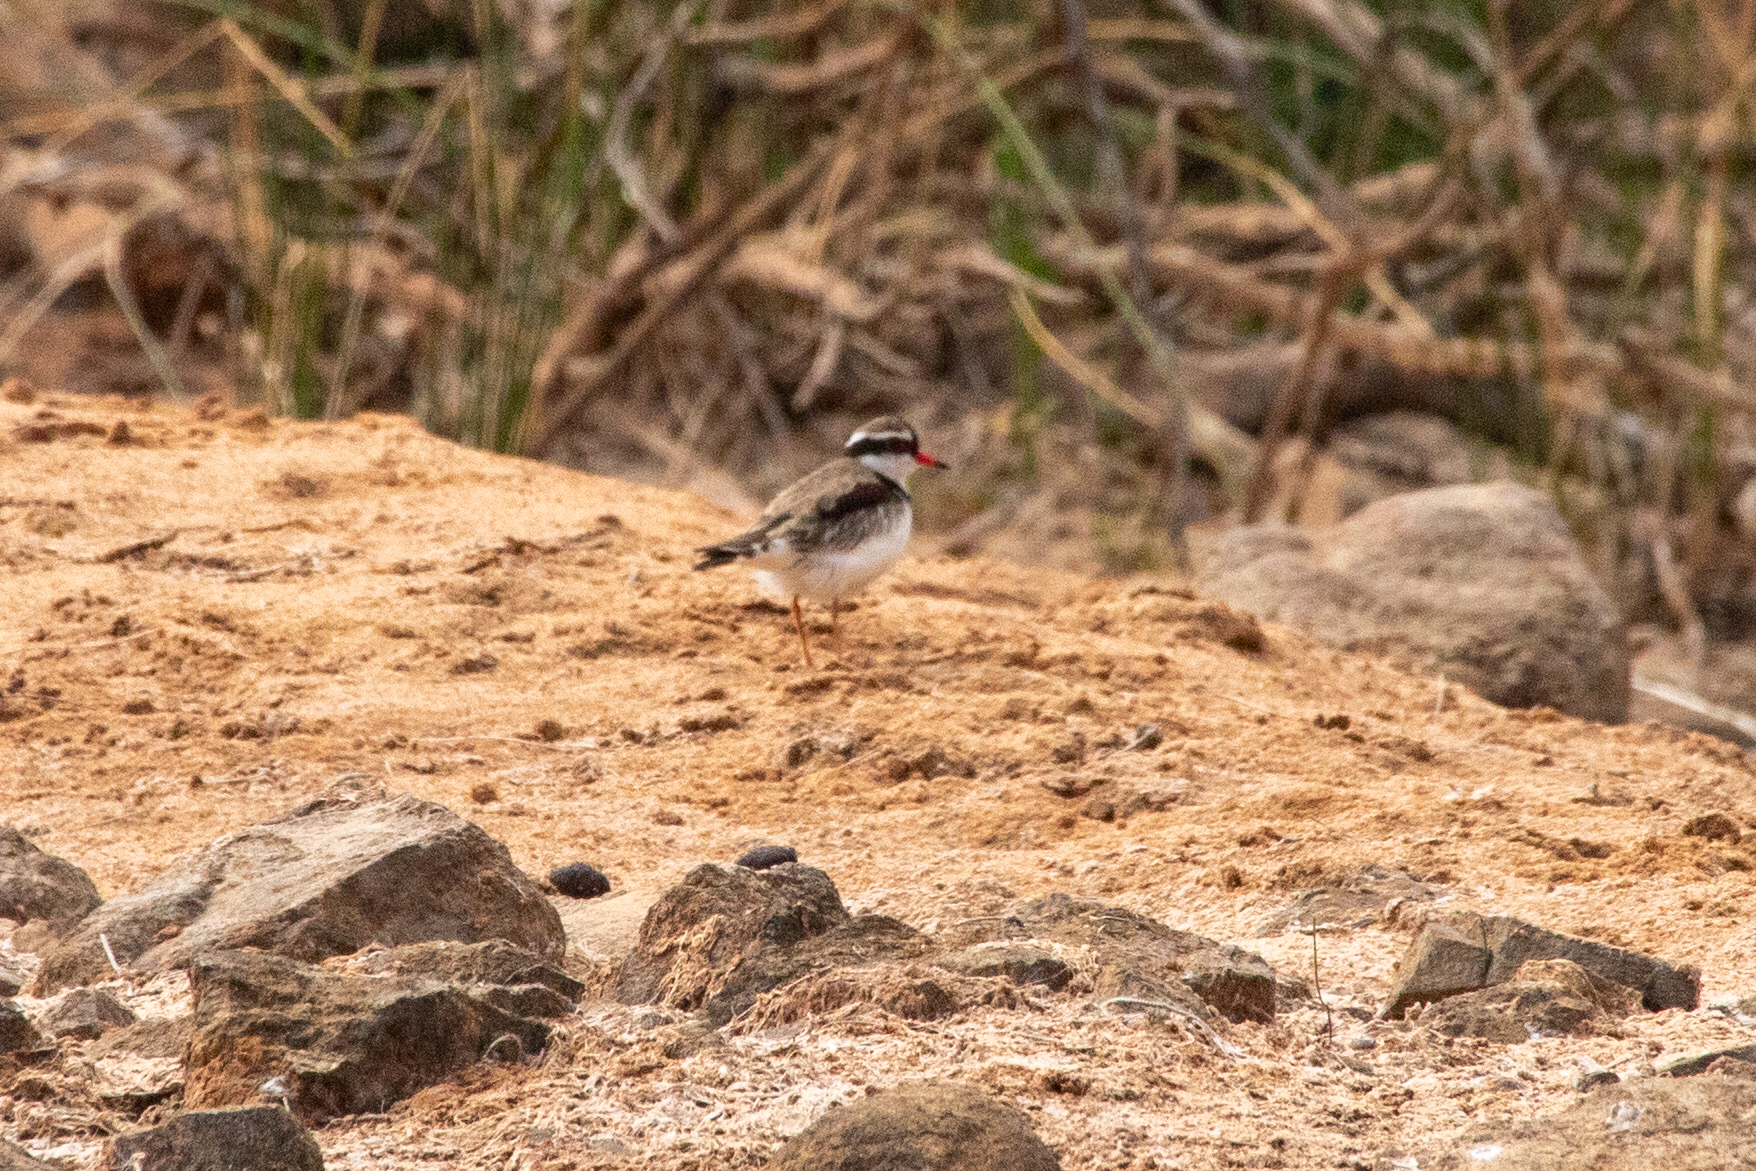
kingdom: Animalia
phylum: Chordata
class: Aves
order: Charadriiformes
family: Charadriidae
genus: Elseyornis
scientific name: Elseyornis melanops
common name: Black-fronted dotterel
